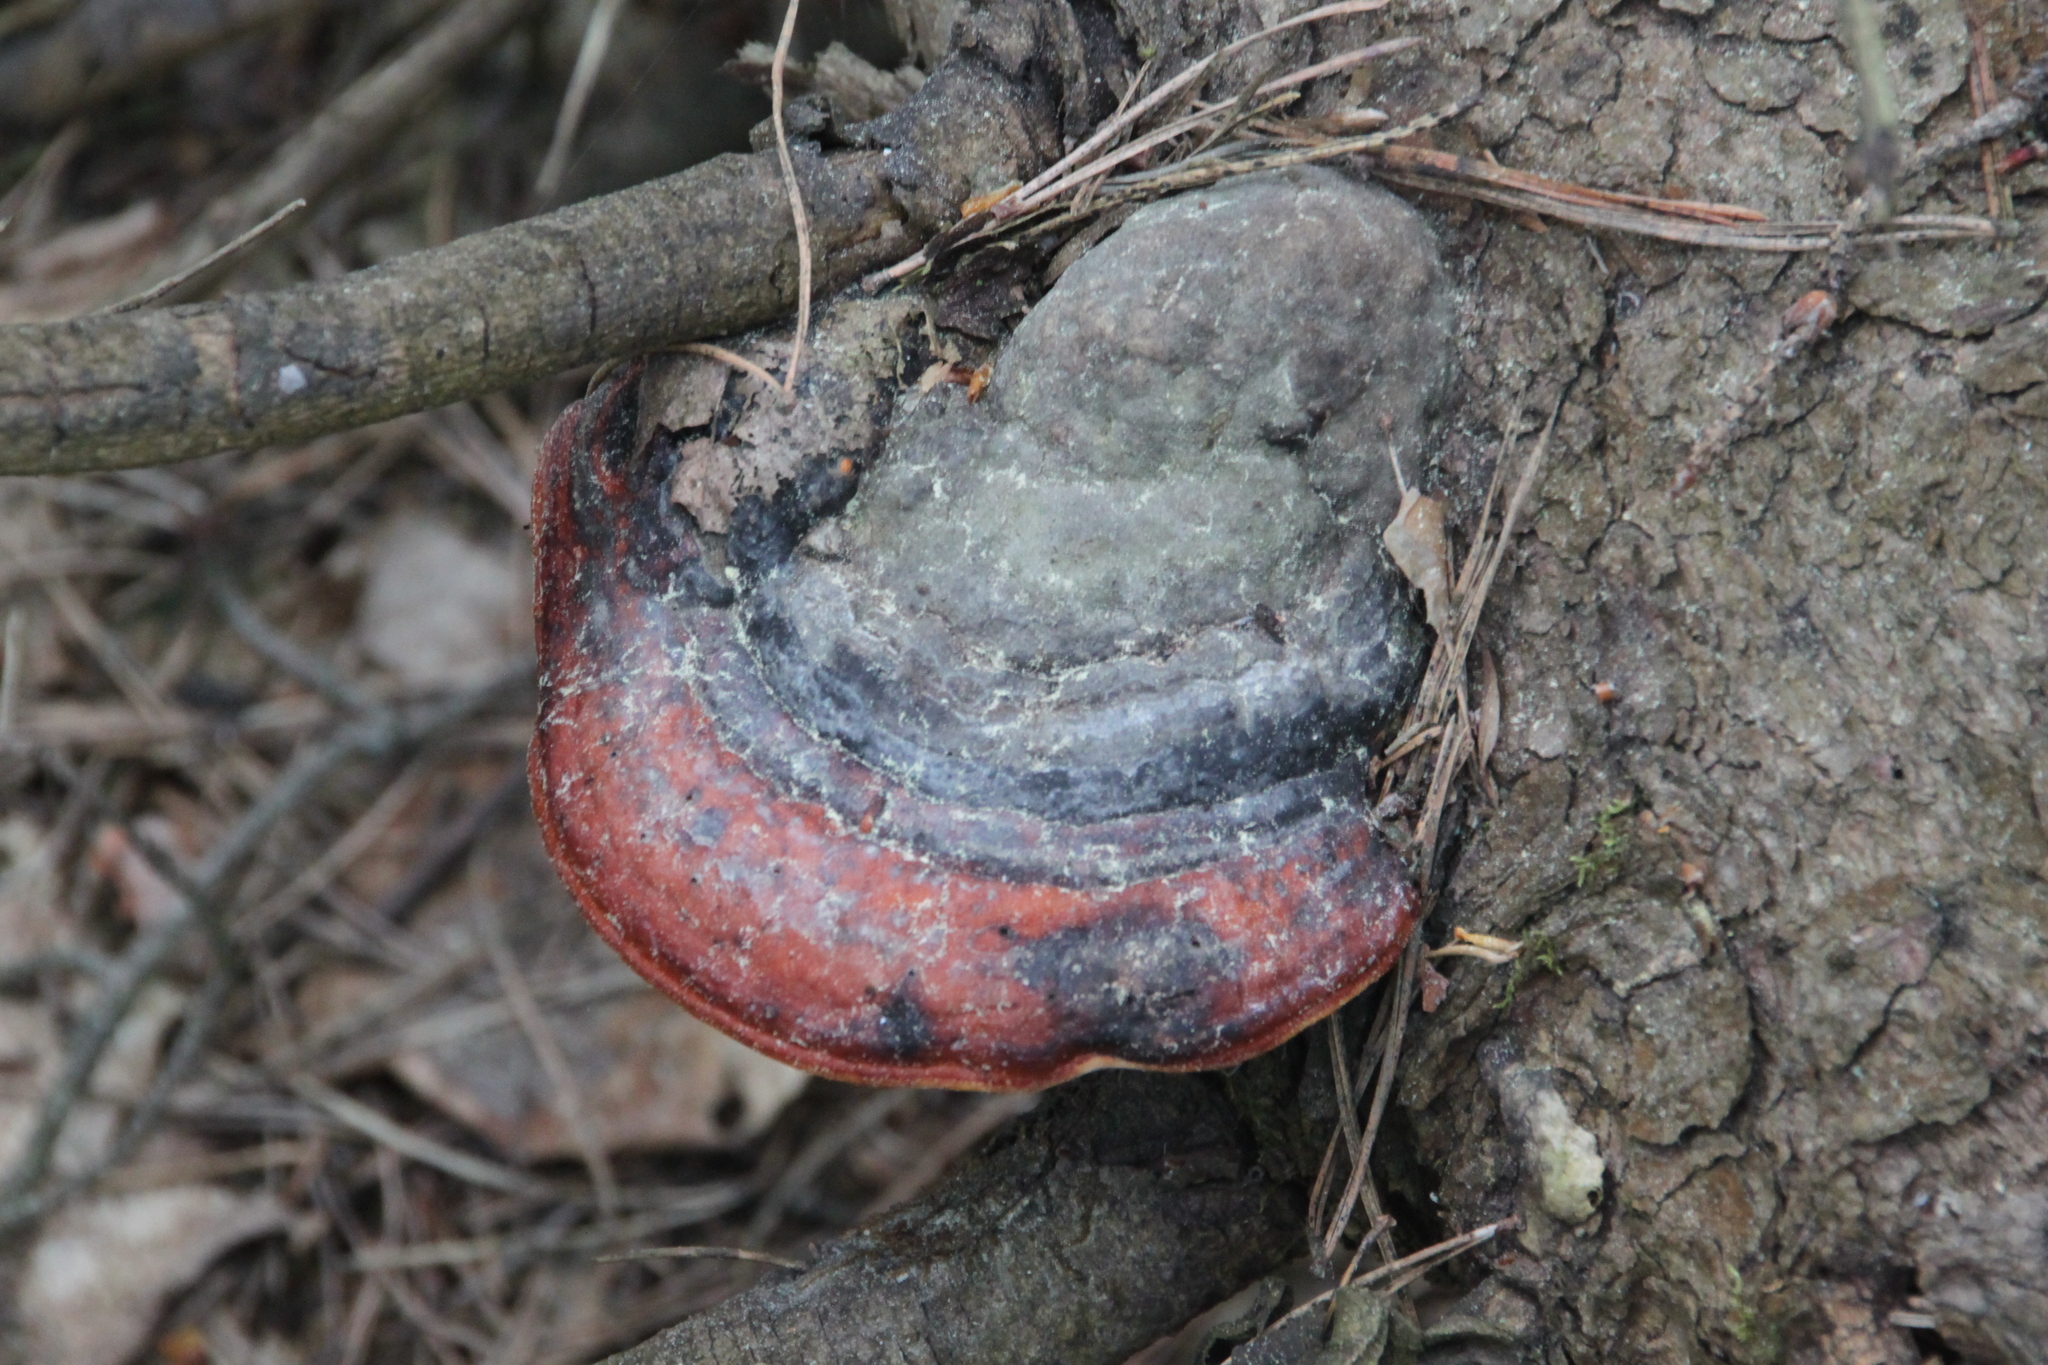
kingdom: Fungi
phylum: Basidiomycota
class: Agaricomycetes
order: Polyporales
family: Fomitopsidaceae
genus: Fomitopsis
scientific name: Fomitopsis pinicola
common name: Red-belted bracket
